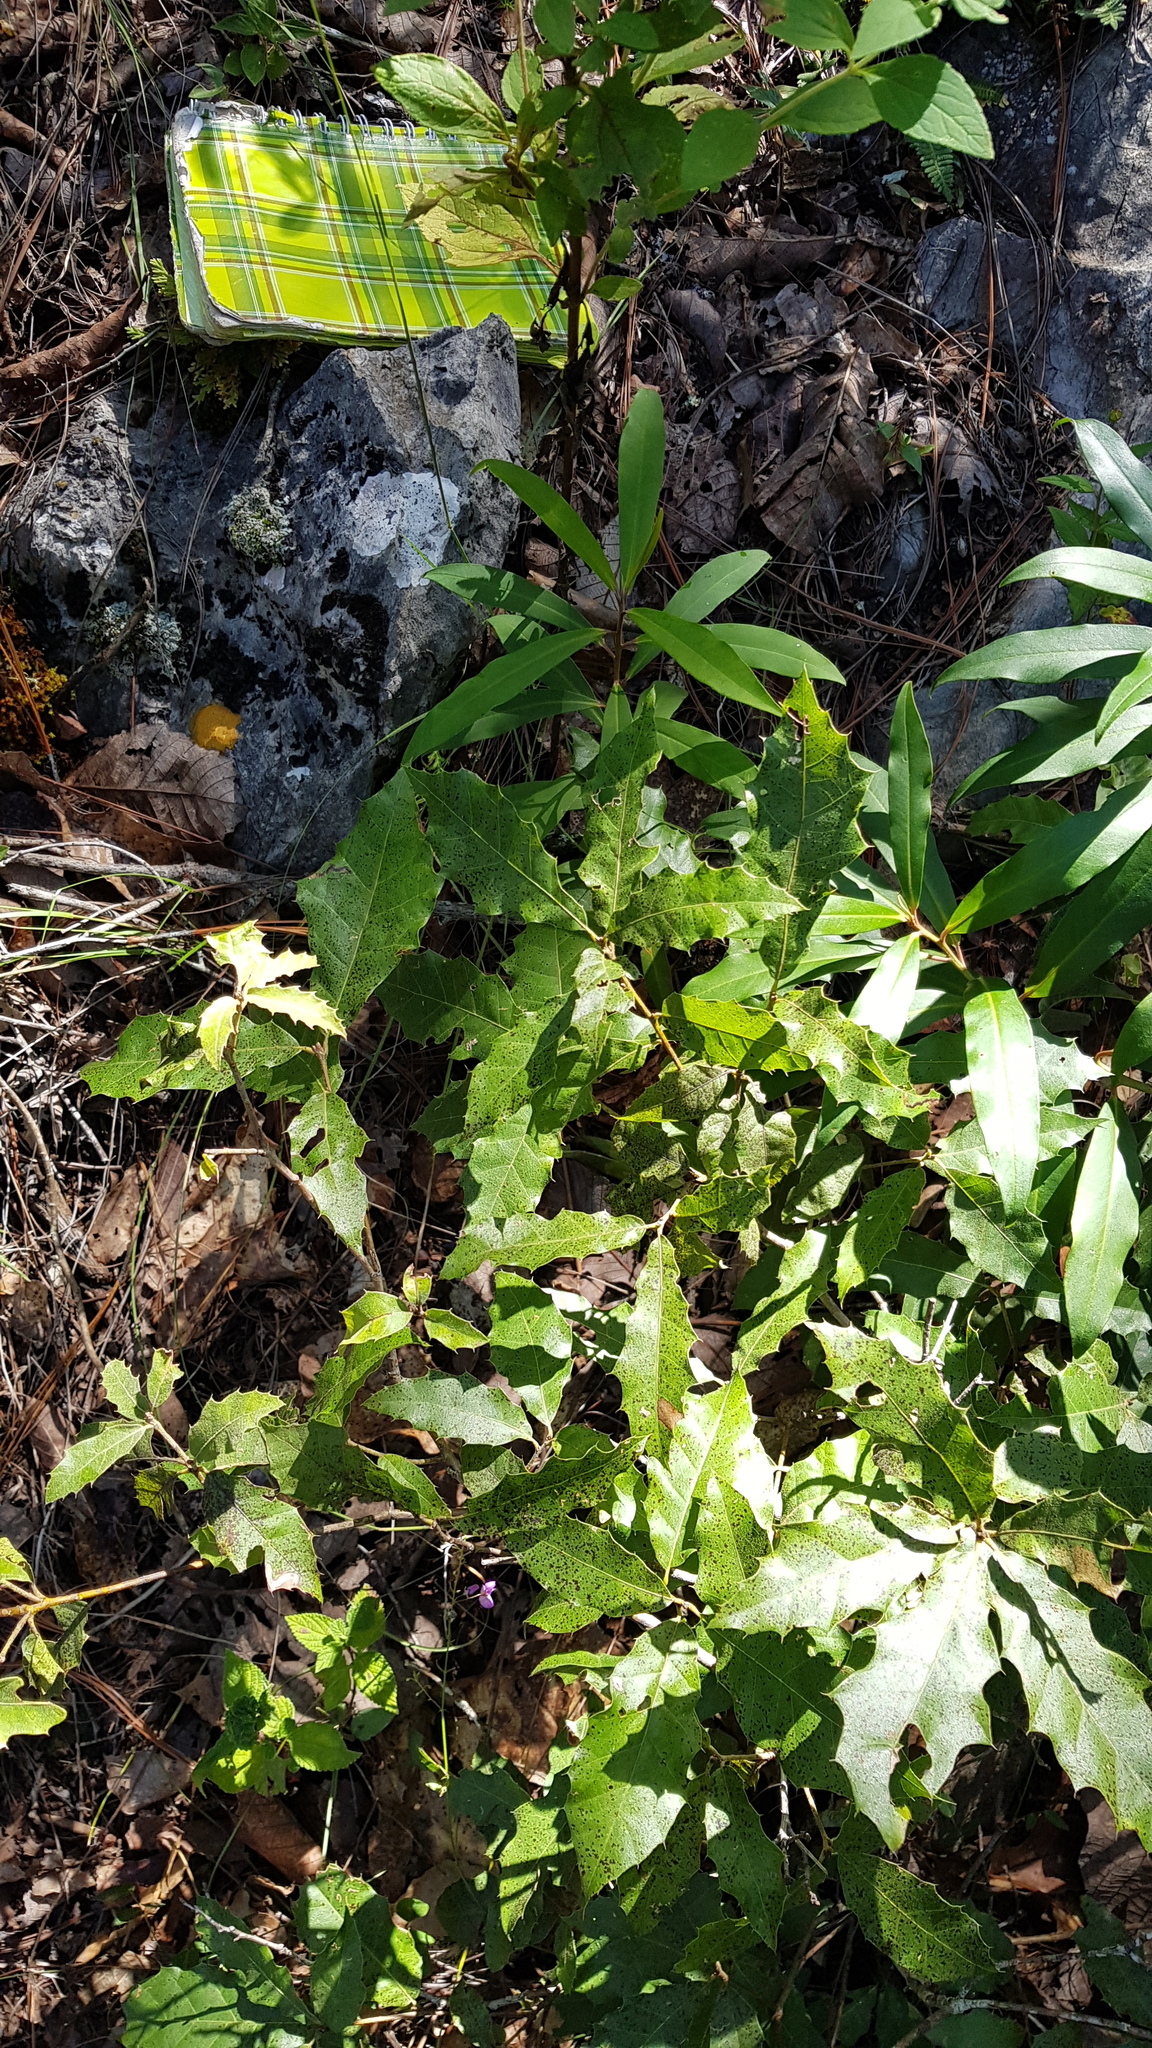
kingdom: Plantae
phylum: Tracheophyta
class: Magnoliopsida
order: Fagales
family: Fagaceae
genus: Quercus
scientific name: Quercus acutifolia
